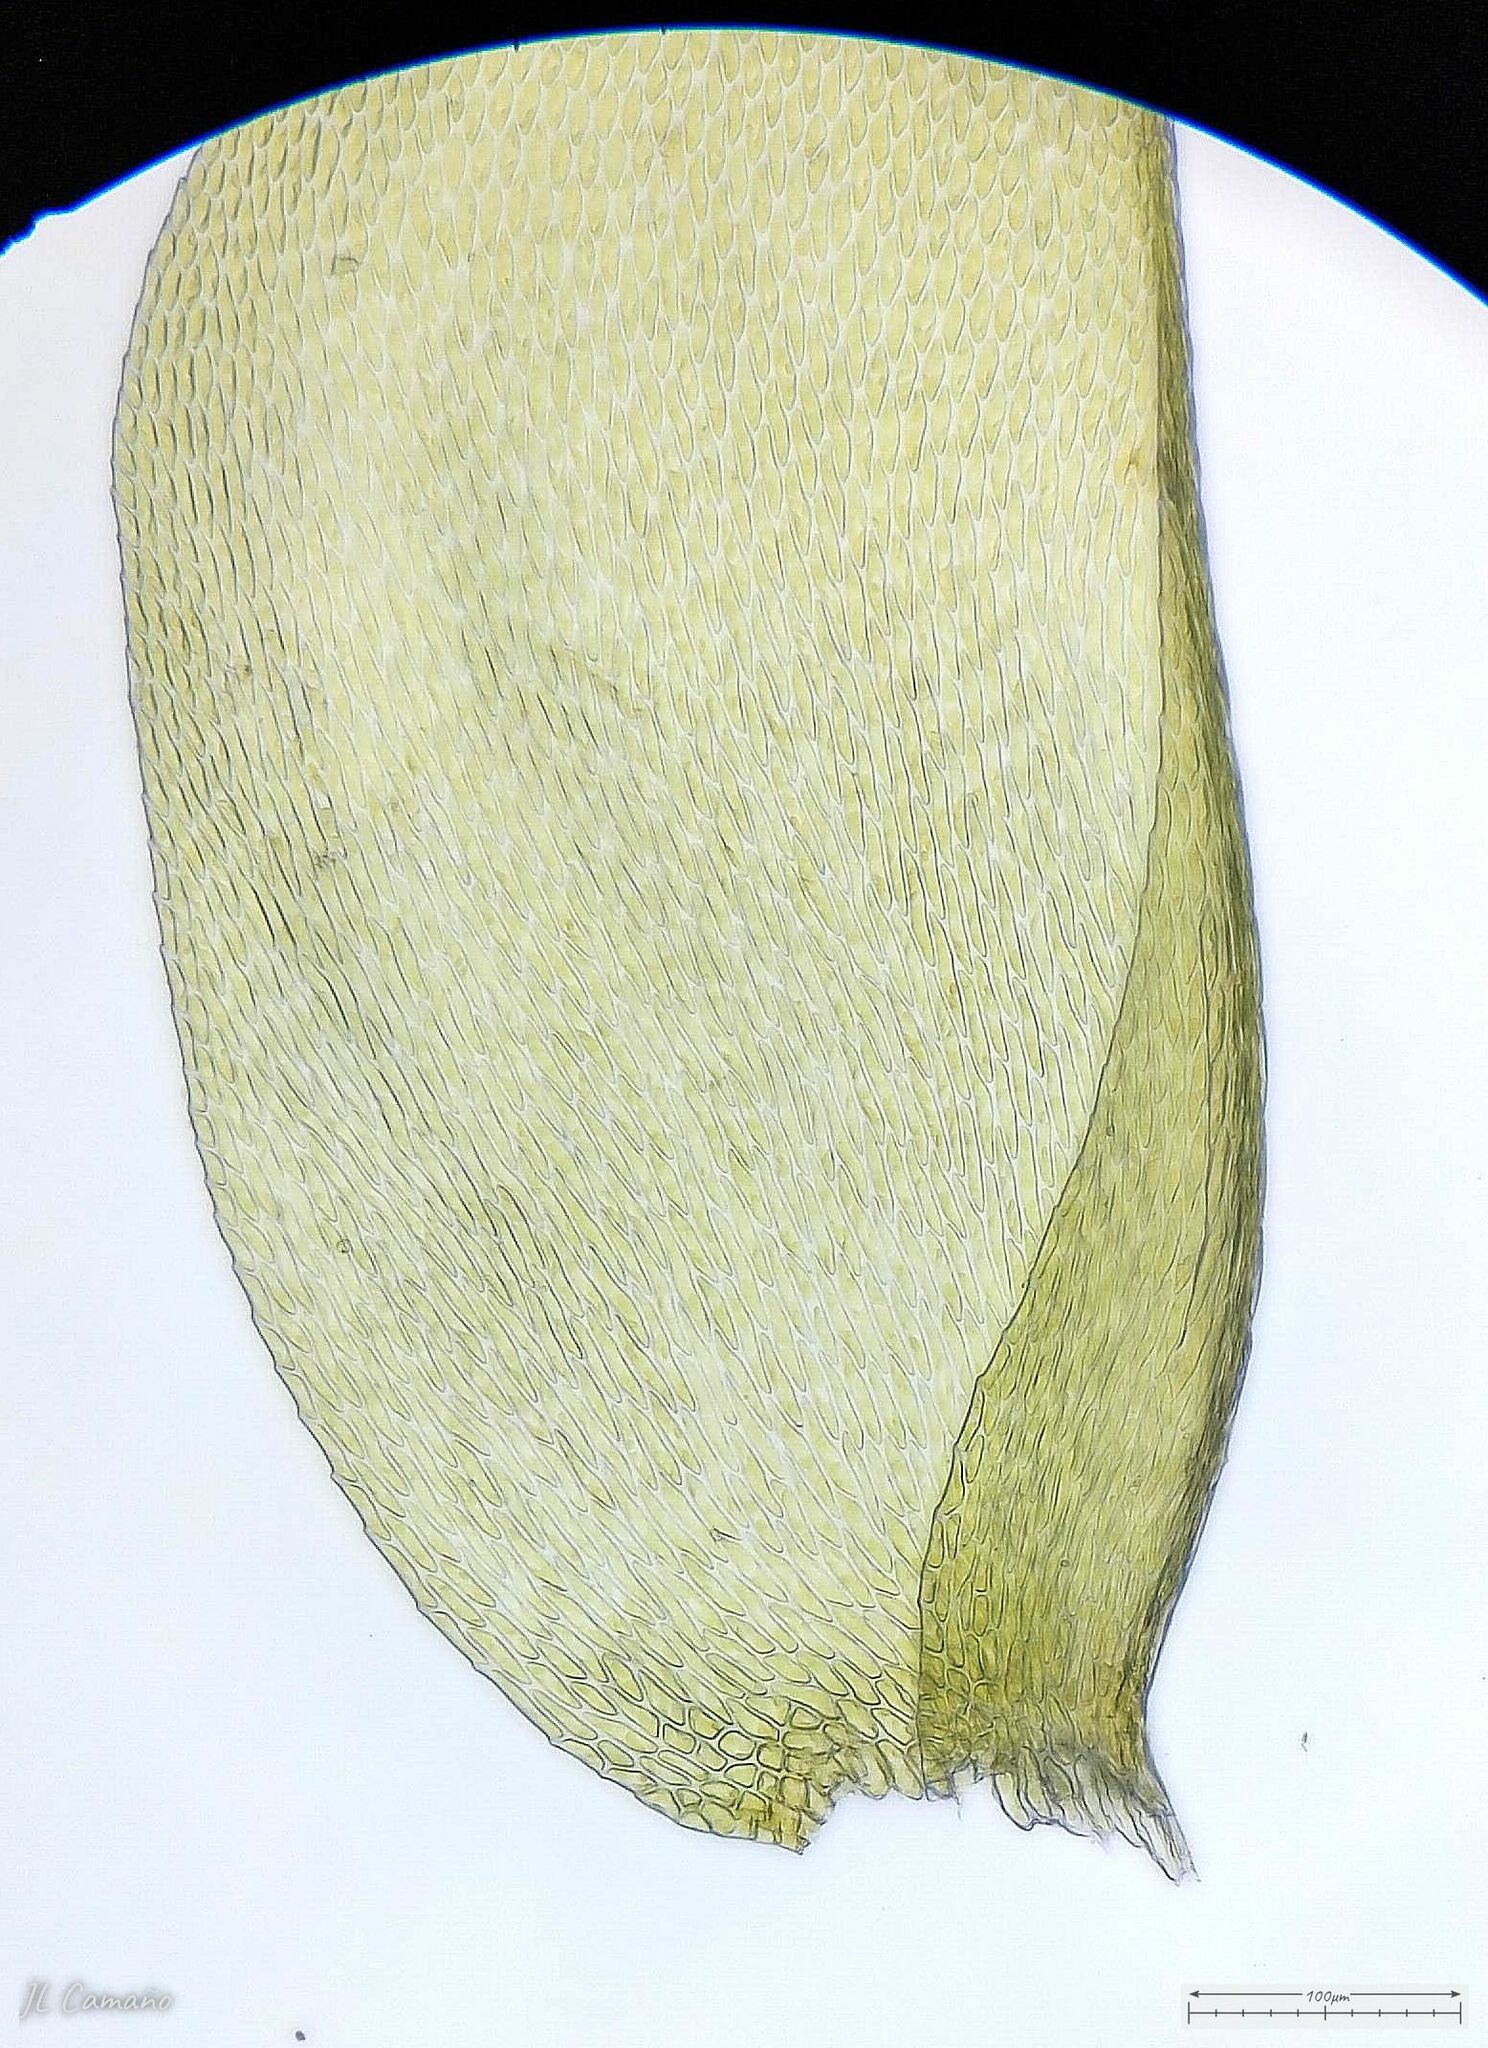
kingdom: Plantae
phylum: Bryophyta
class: Bryopsida
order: Hypnales
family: Neckeraceae
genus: Alleniella
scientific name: Alleniella complanata
